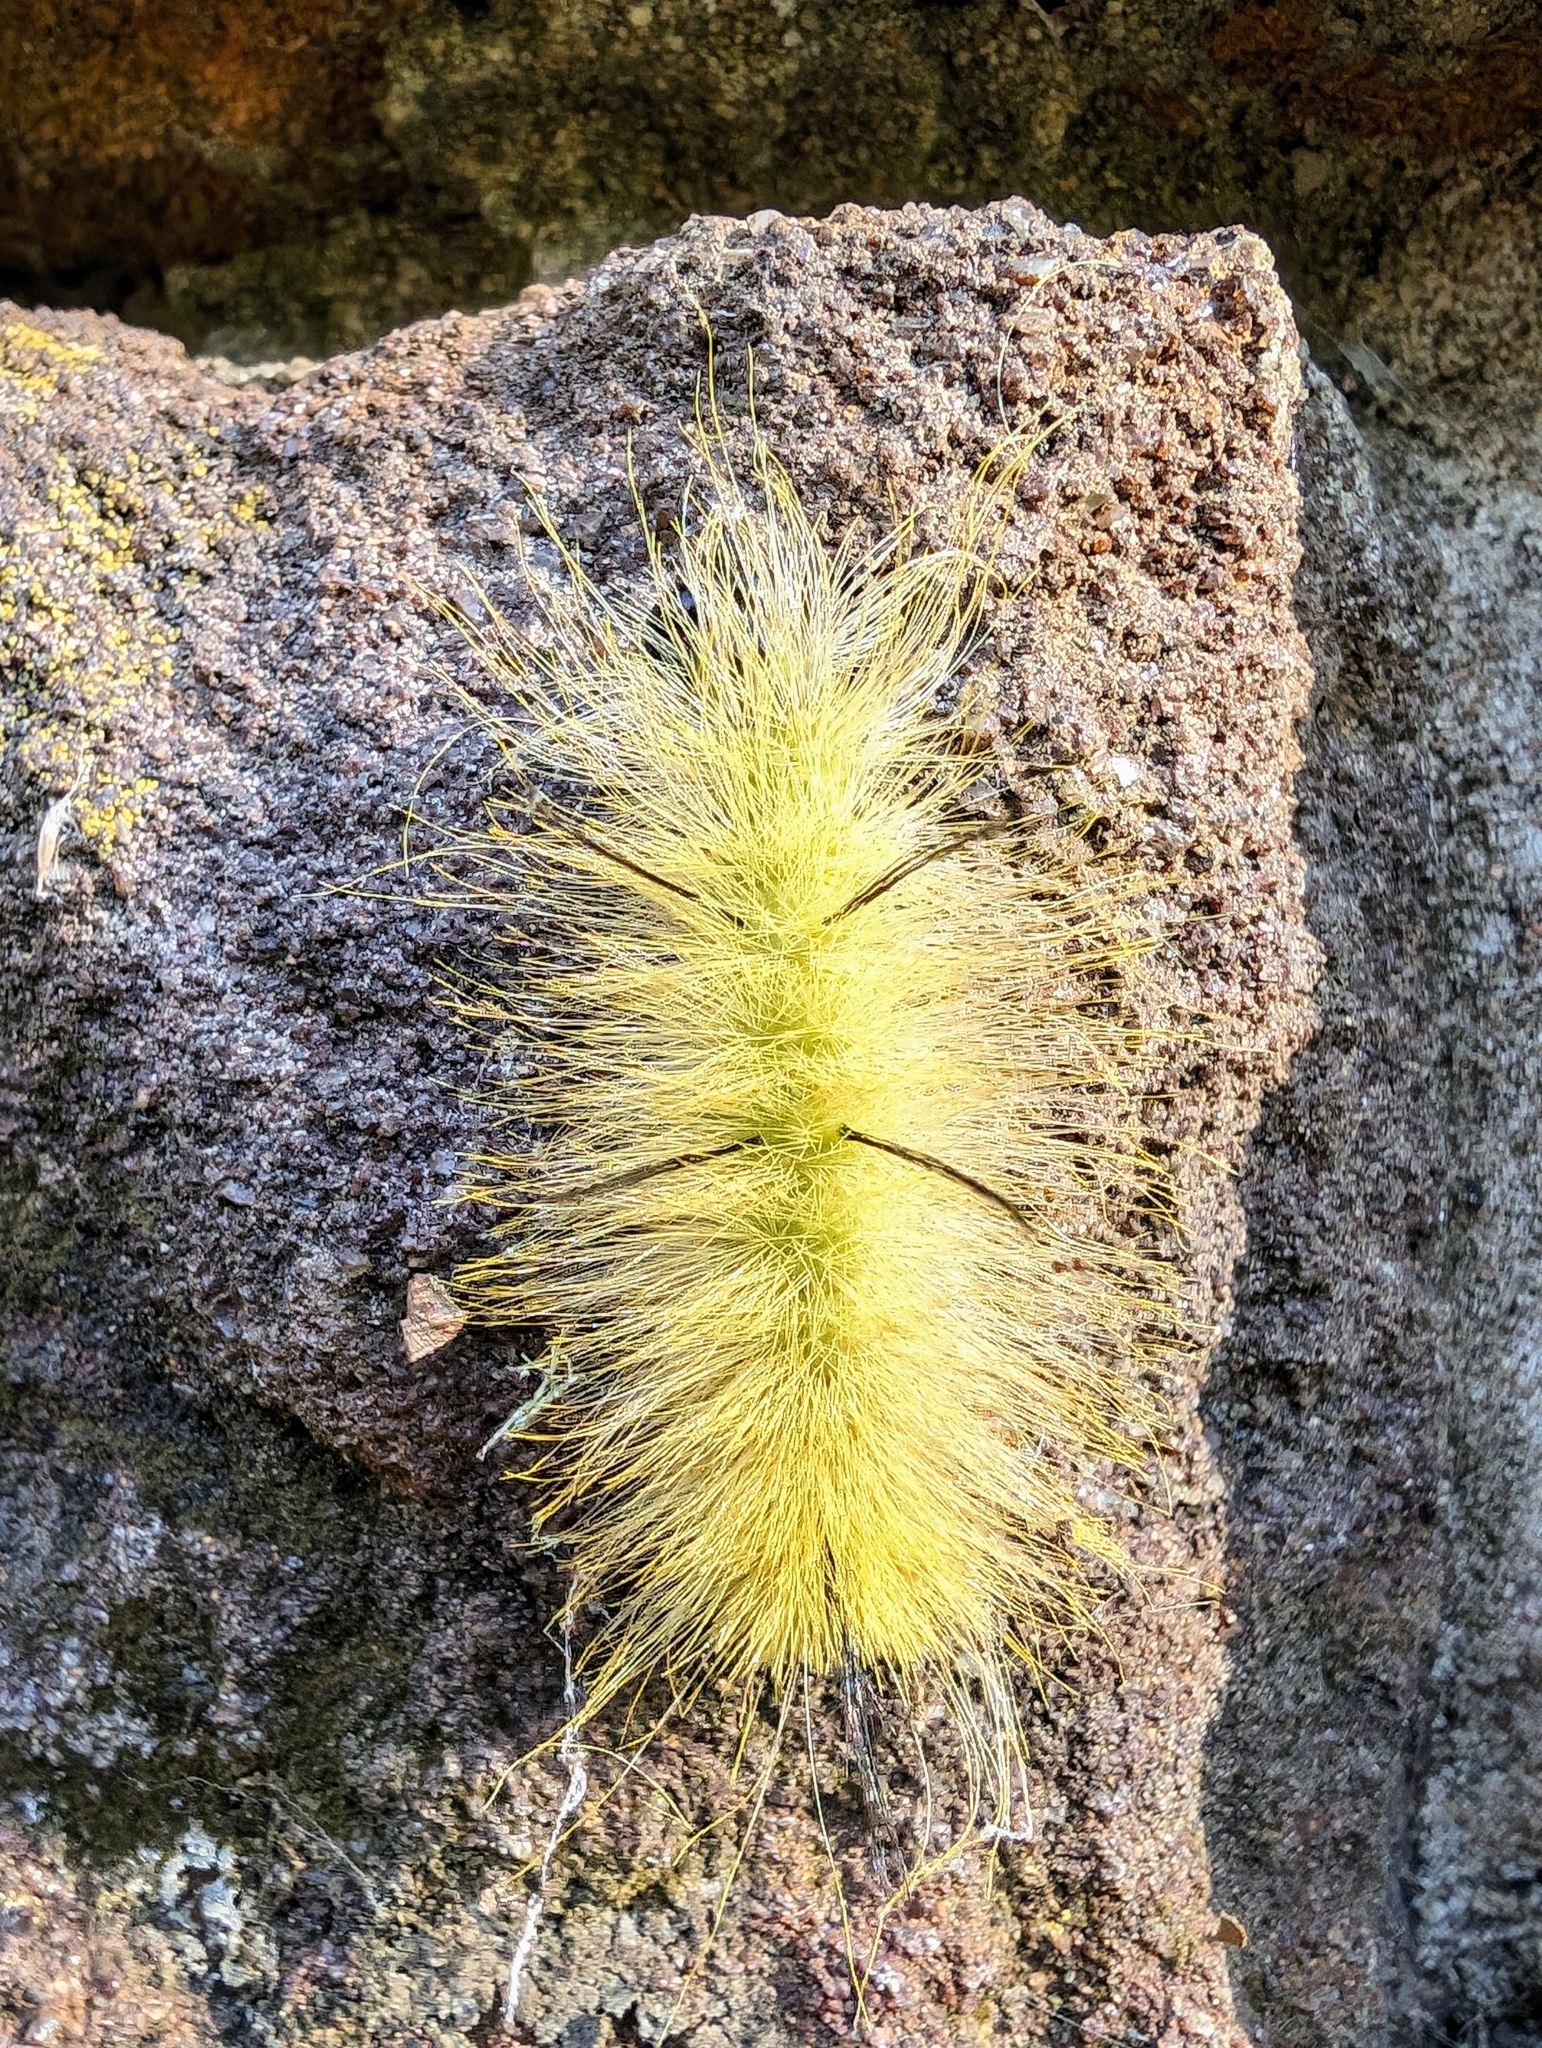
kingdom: Animalia
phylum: Arthropoda
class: Insecta
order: Lepidoptera
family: Noctuidae
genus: Acronicta
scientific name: Acronicta americana
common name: American dagger
